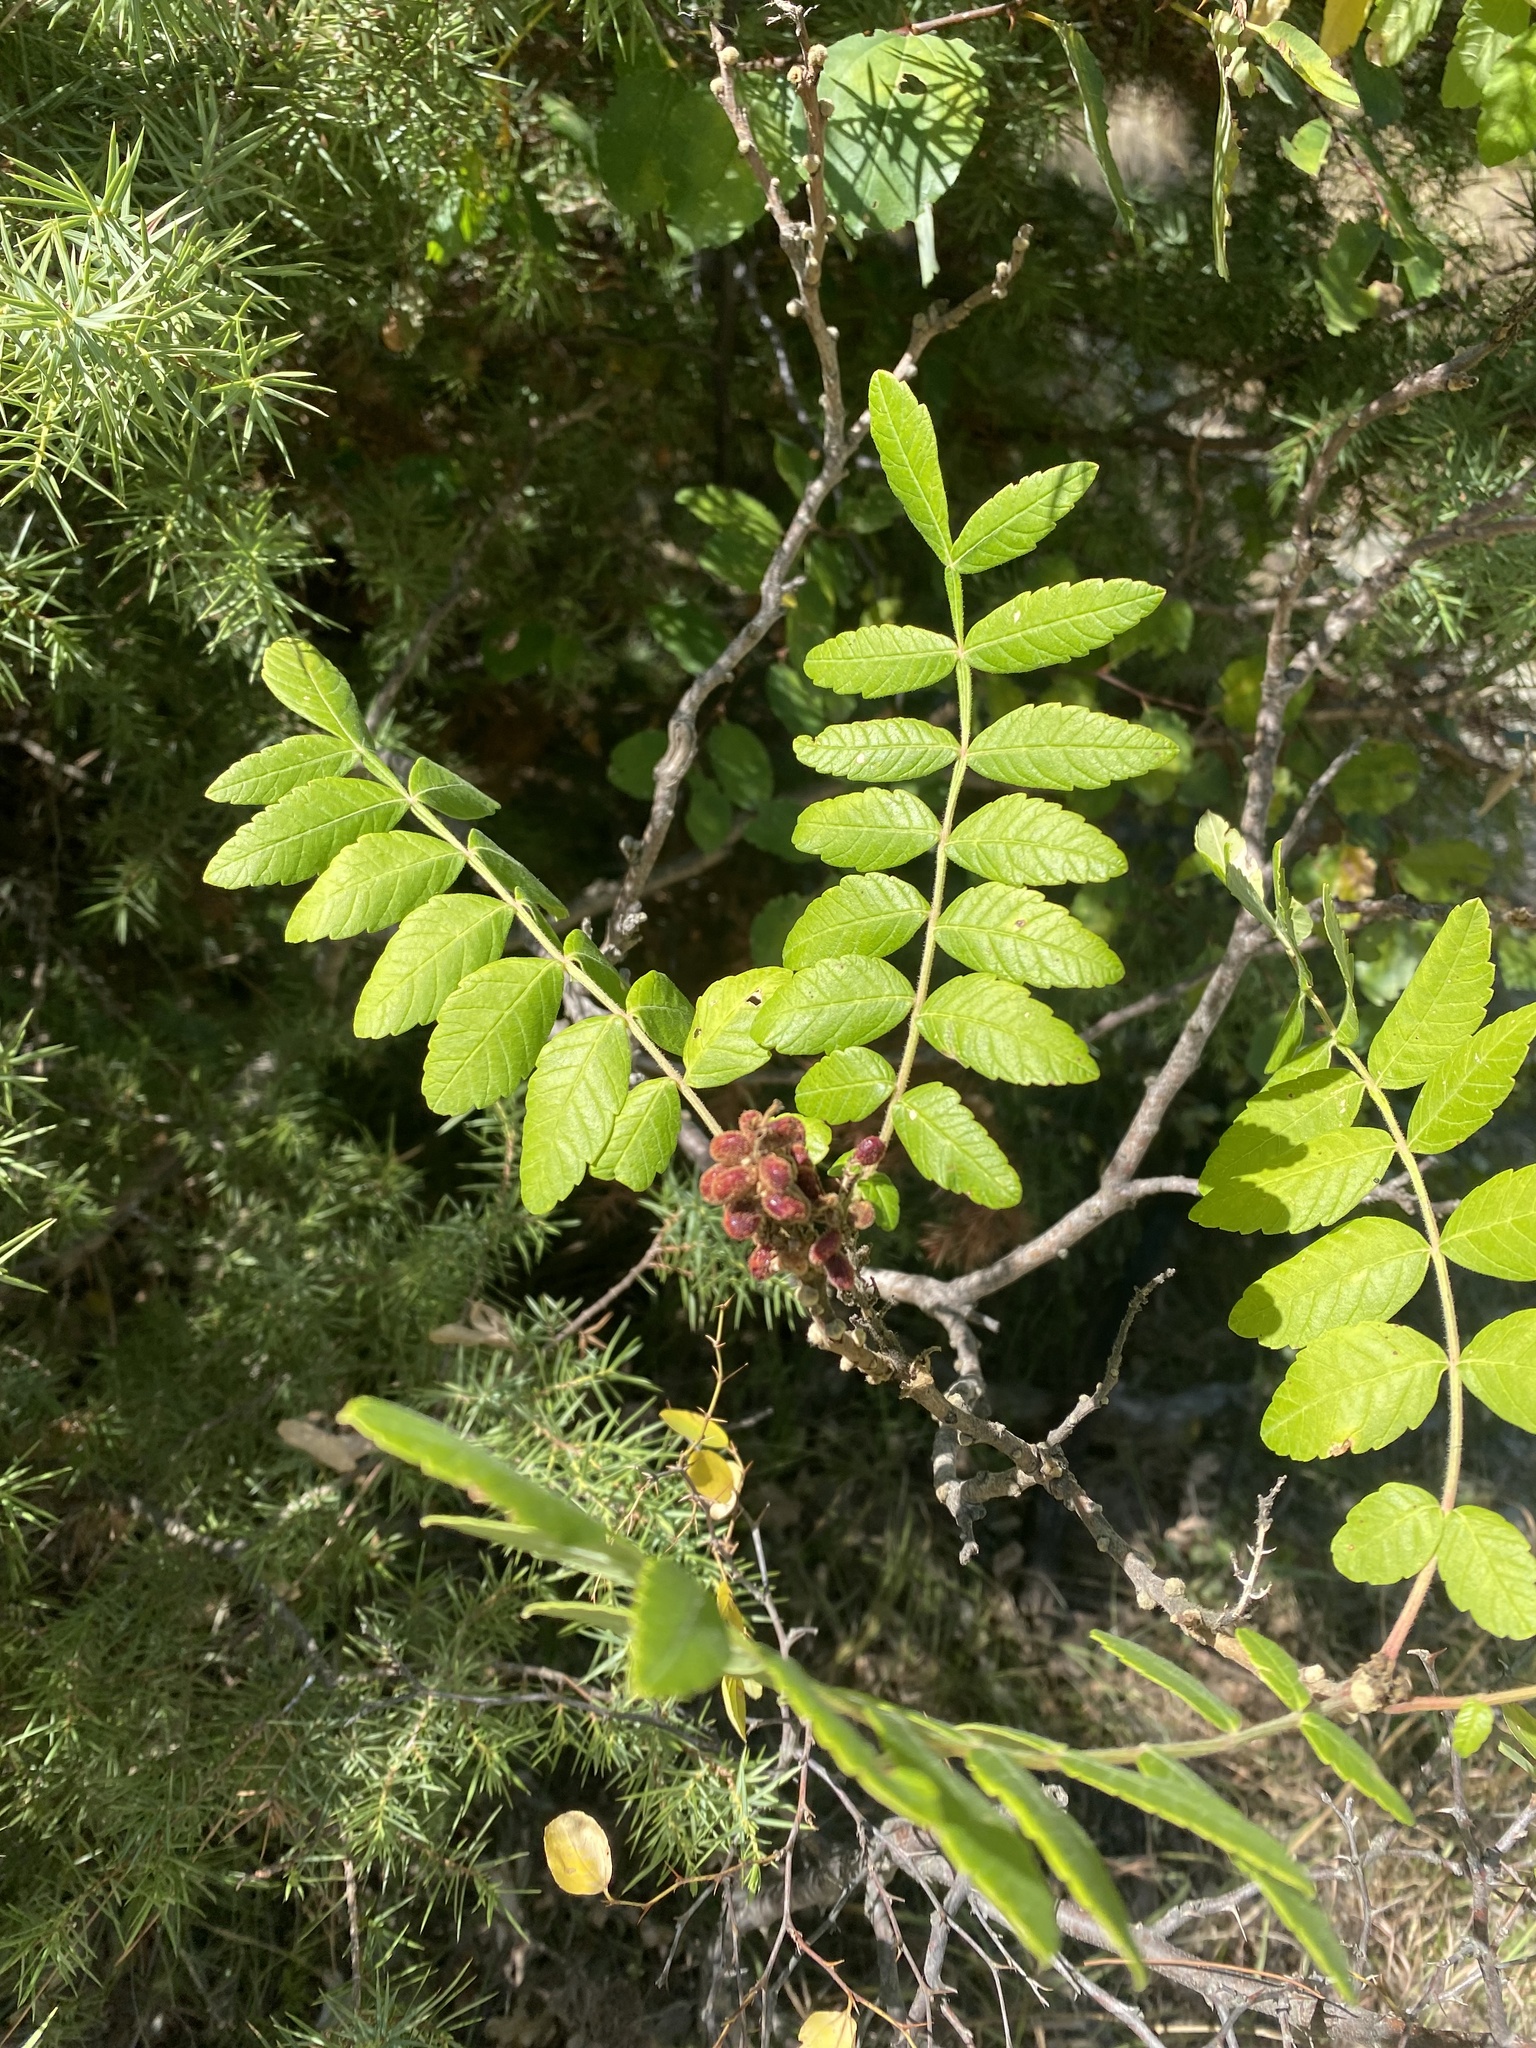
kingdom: Plantae
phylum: Tracheophyta
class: Magnoliopsida
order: Sapindales
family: Anacardiaceae
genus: Rhus
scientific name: Rhus coriaria
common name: Tanner's sumach
